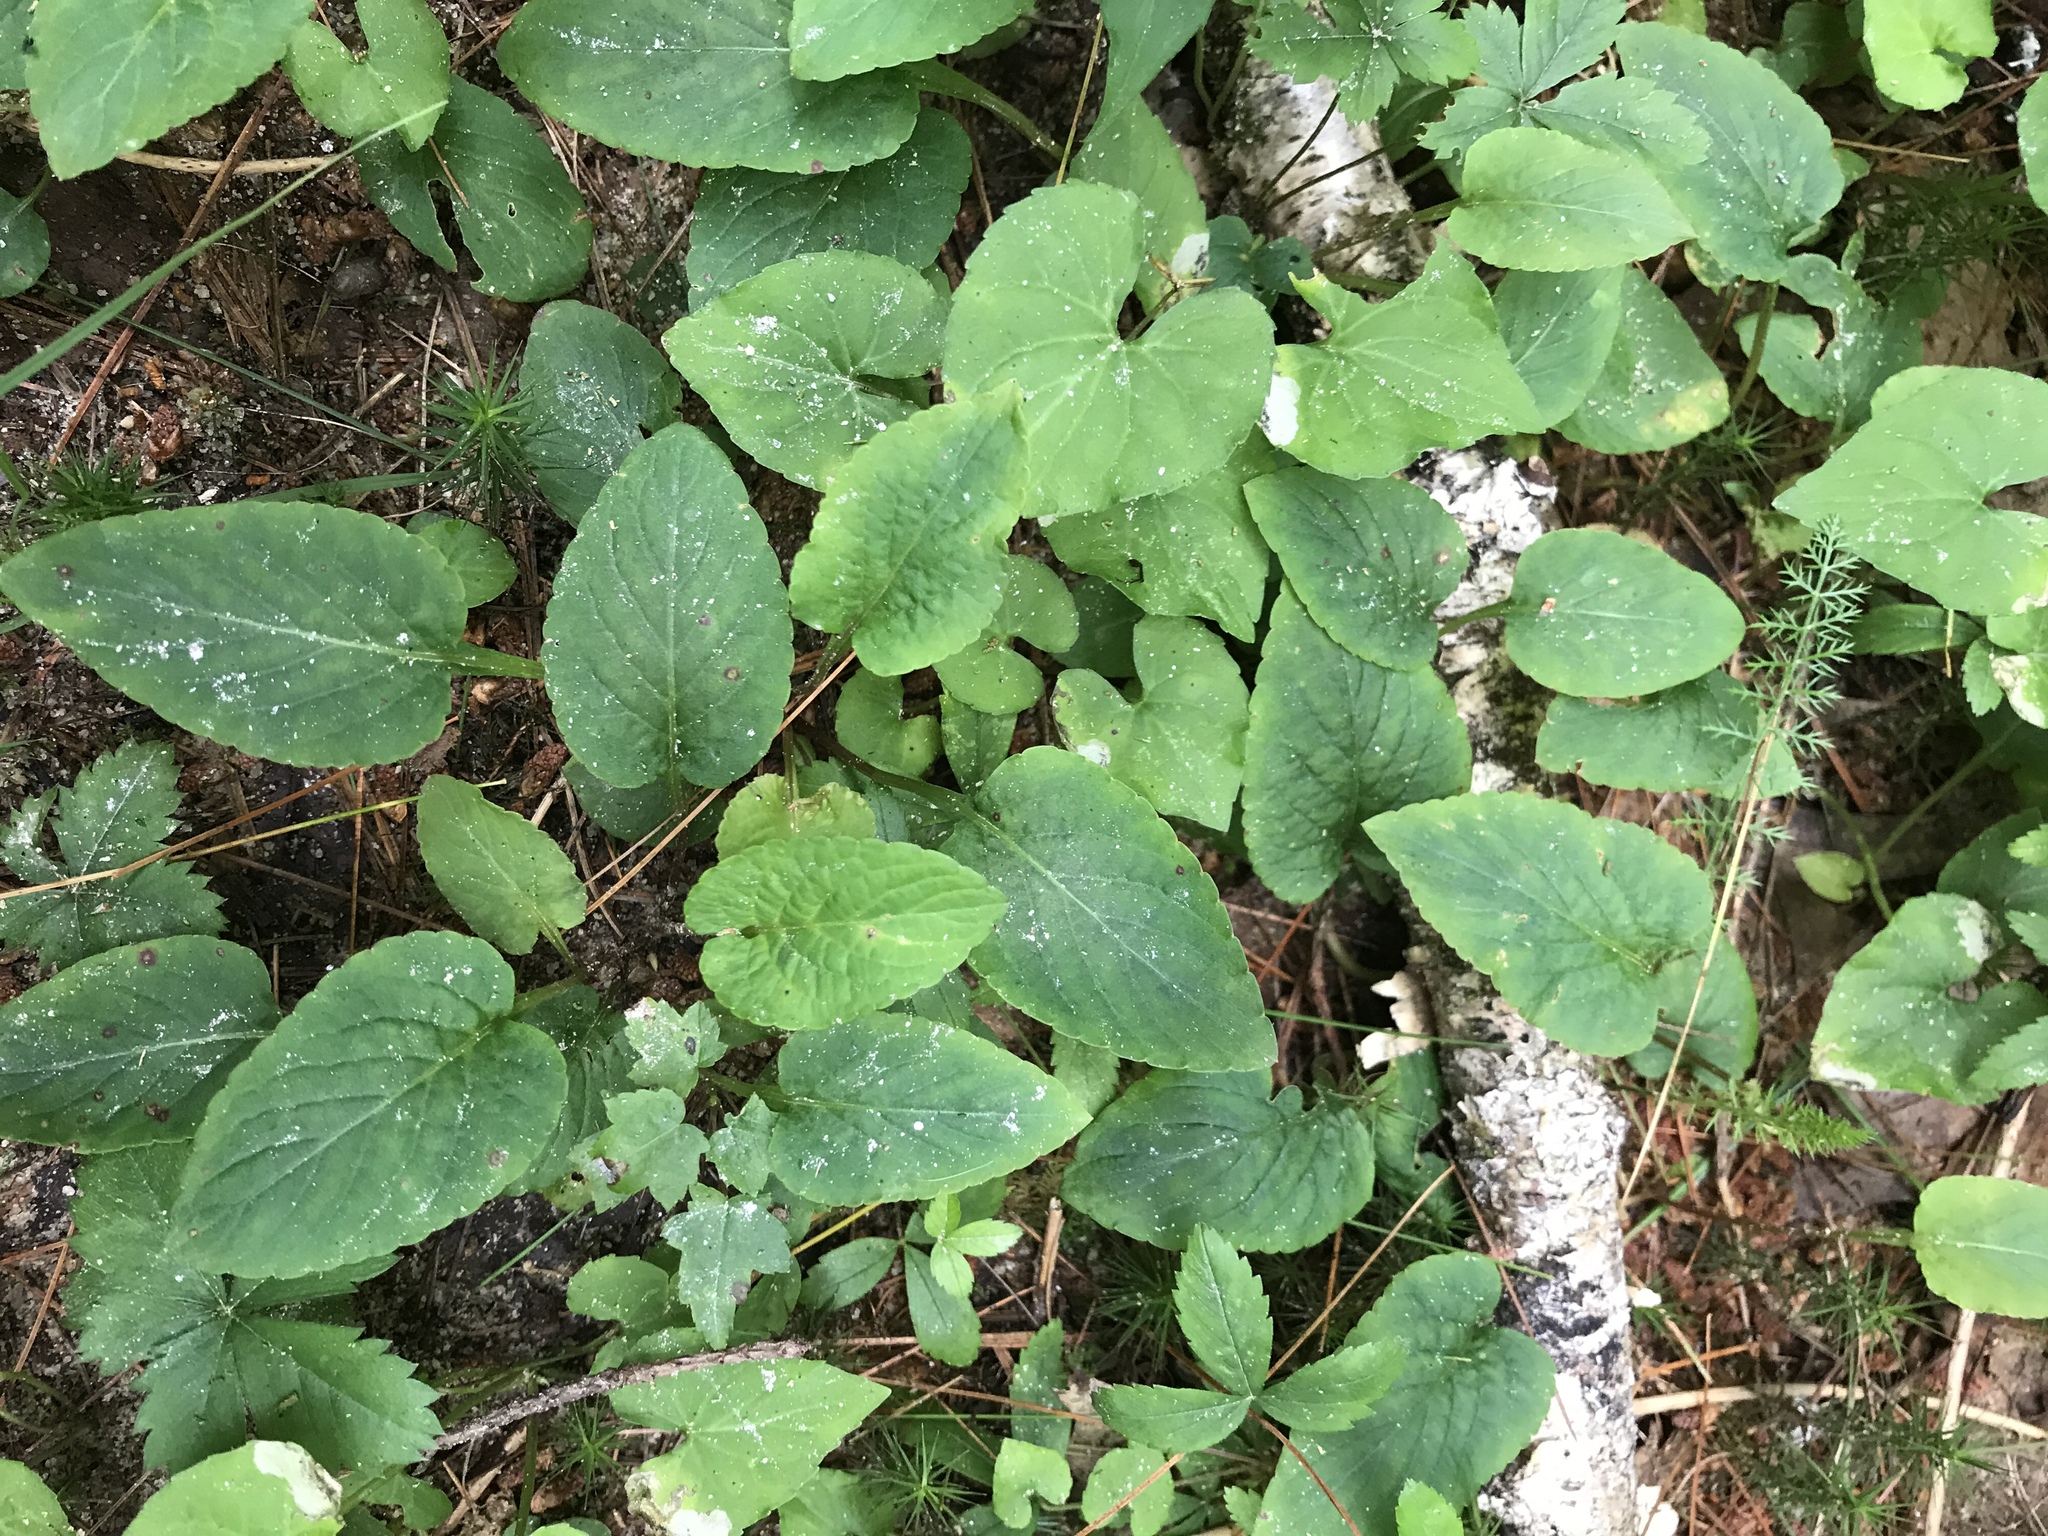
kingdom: Plantae
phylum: Tracheophyta
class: Magnoliopsida
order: Malpighiales
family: Violaceae
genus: Viola
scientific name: Viola primulifolia
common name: Primrose-leaf violet
